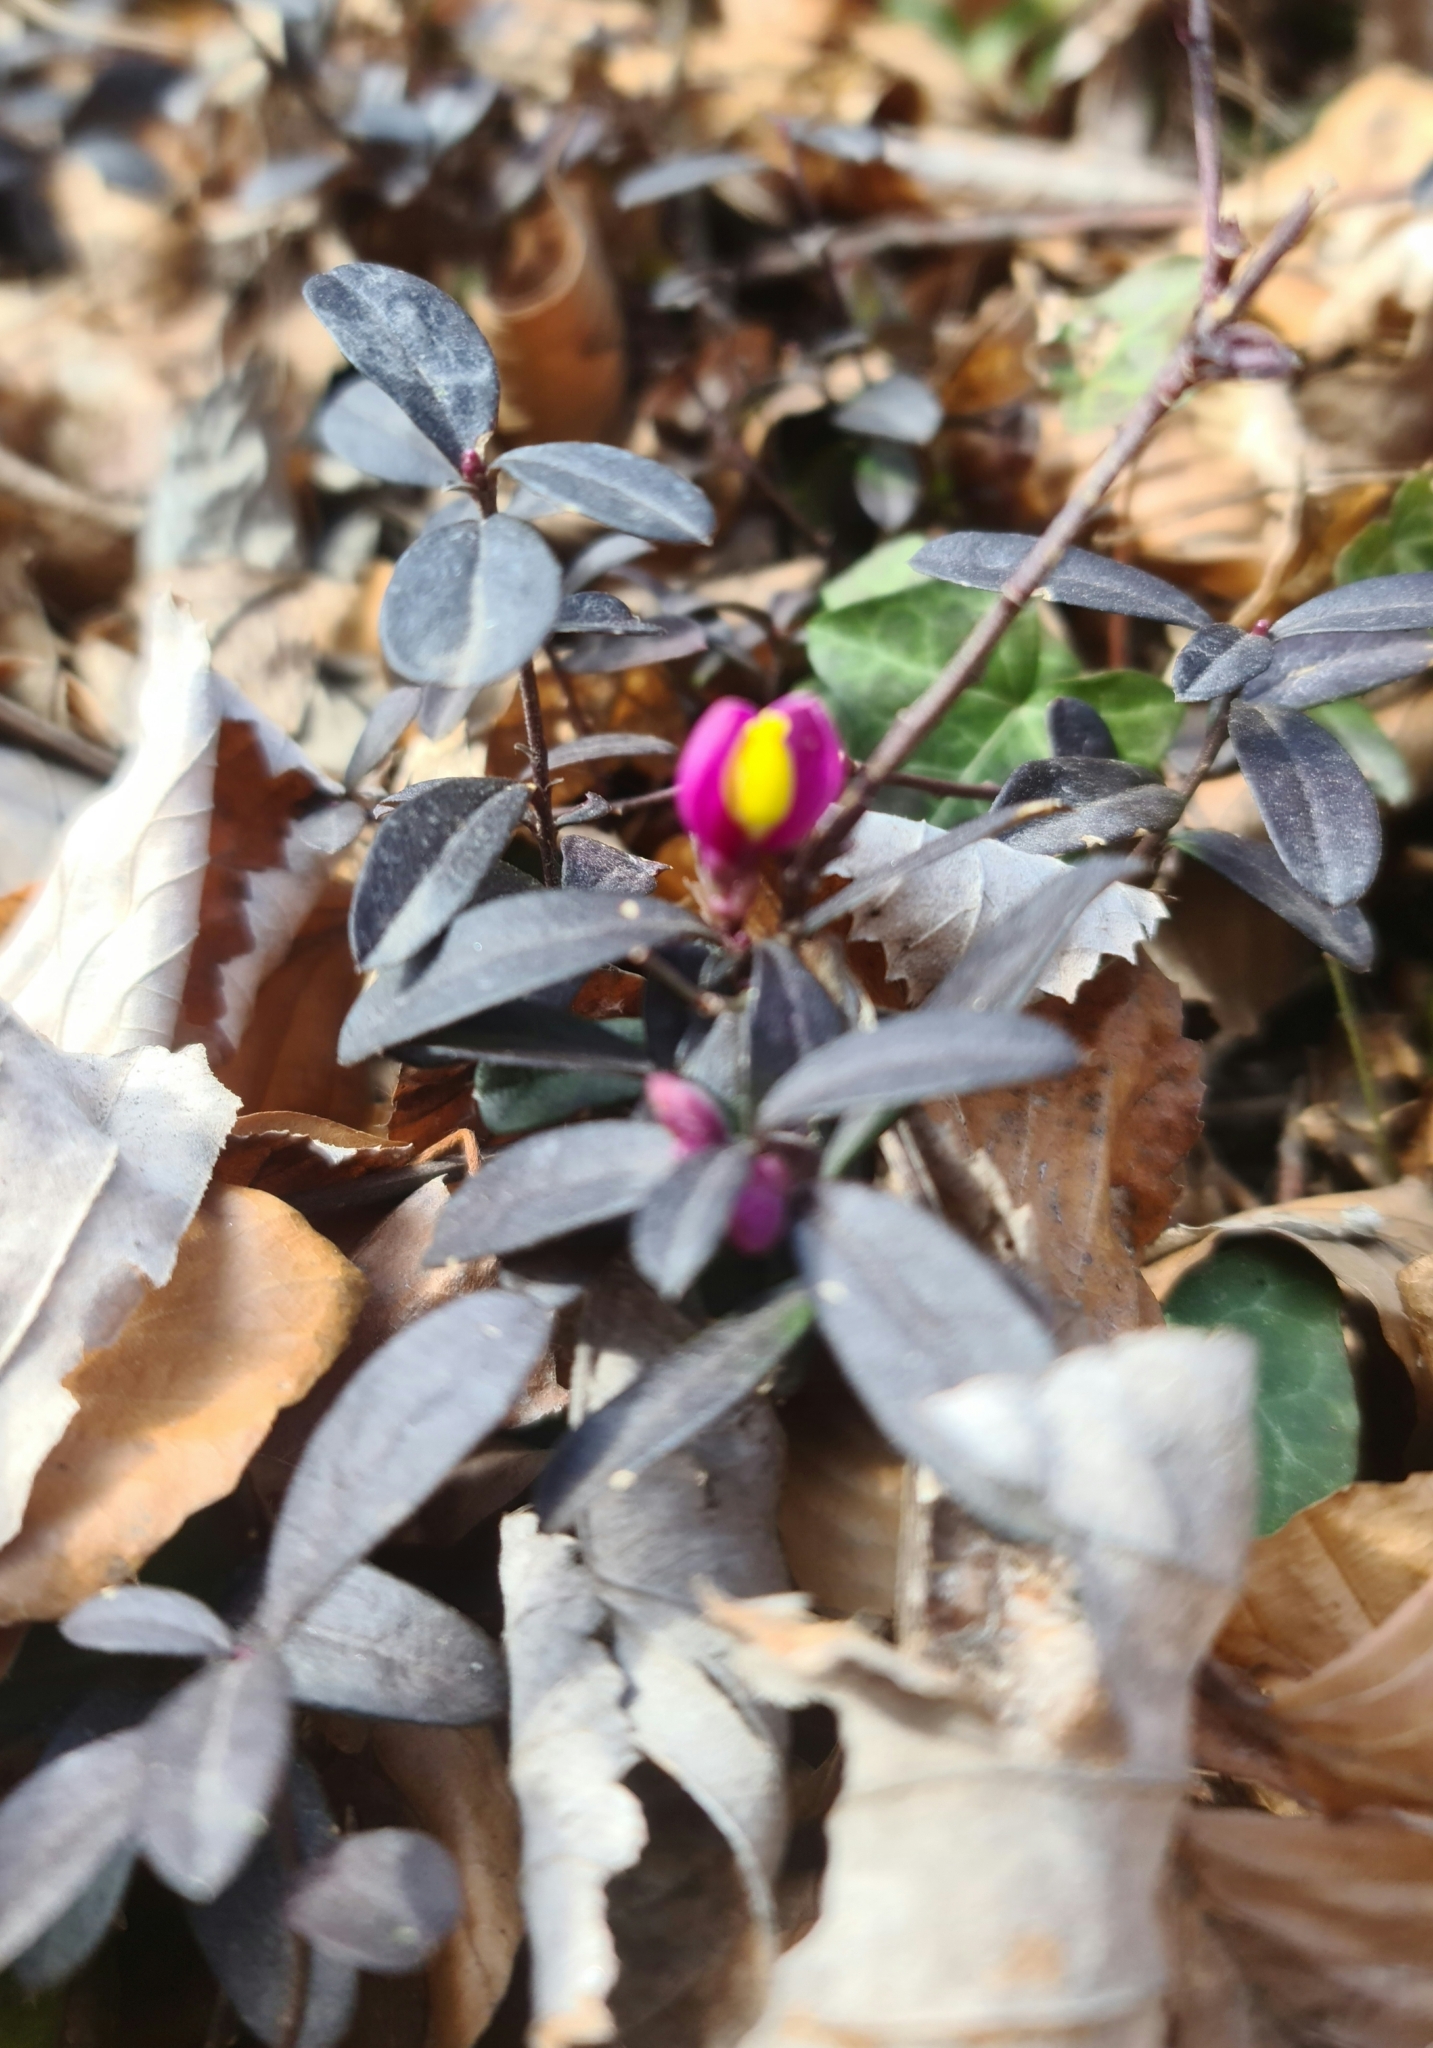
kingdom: Plantae
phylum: Tracheophyta
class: Magnoliopsida
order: Fabales
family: Polygalaceae
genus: Polygaloides
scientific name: Polygaloides chamaebuxus
